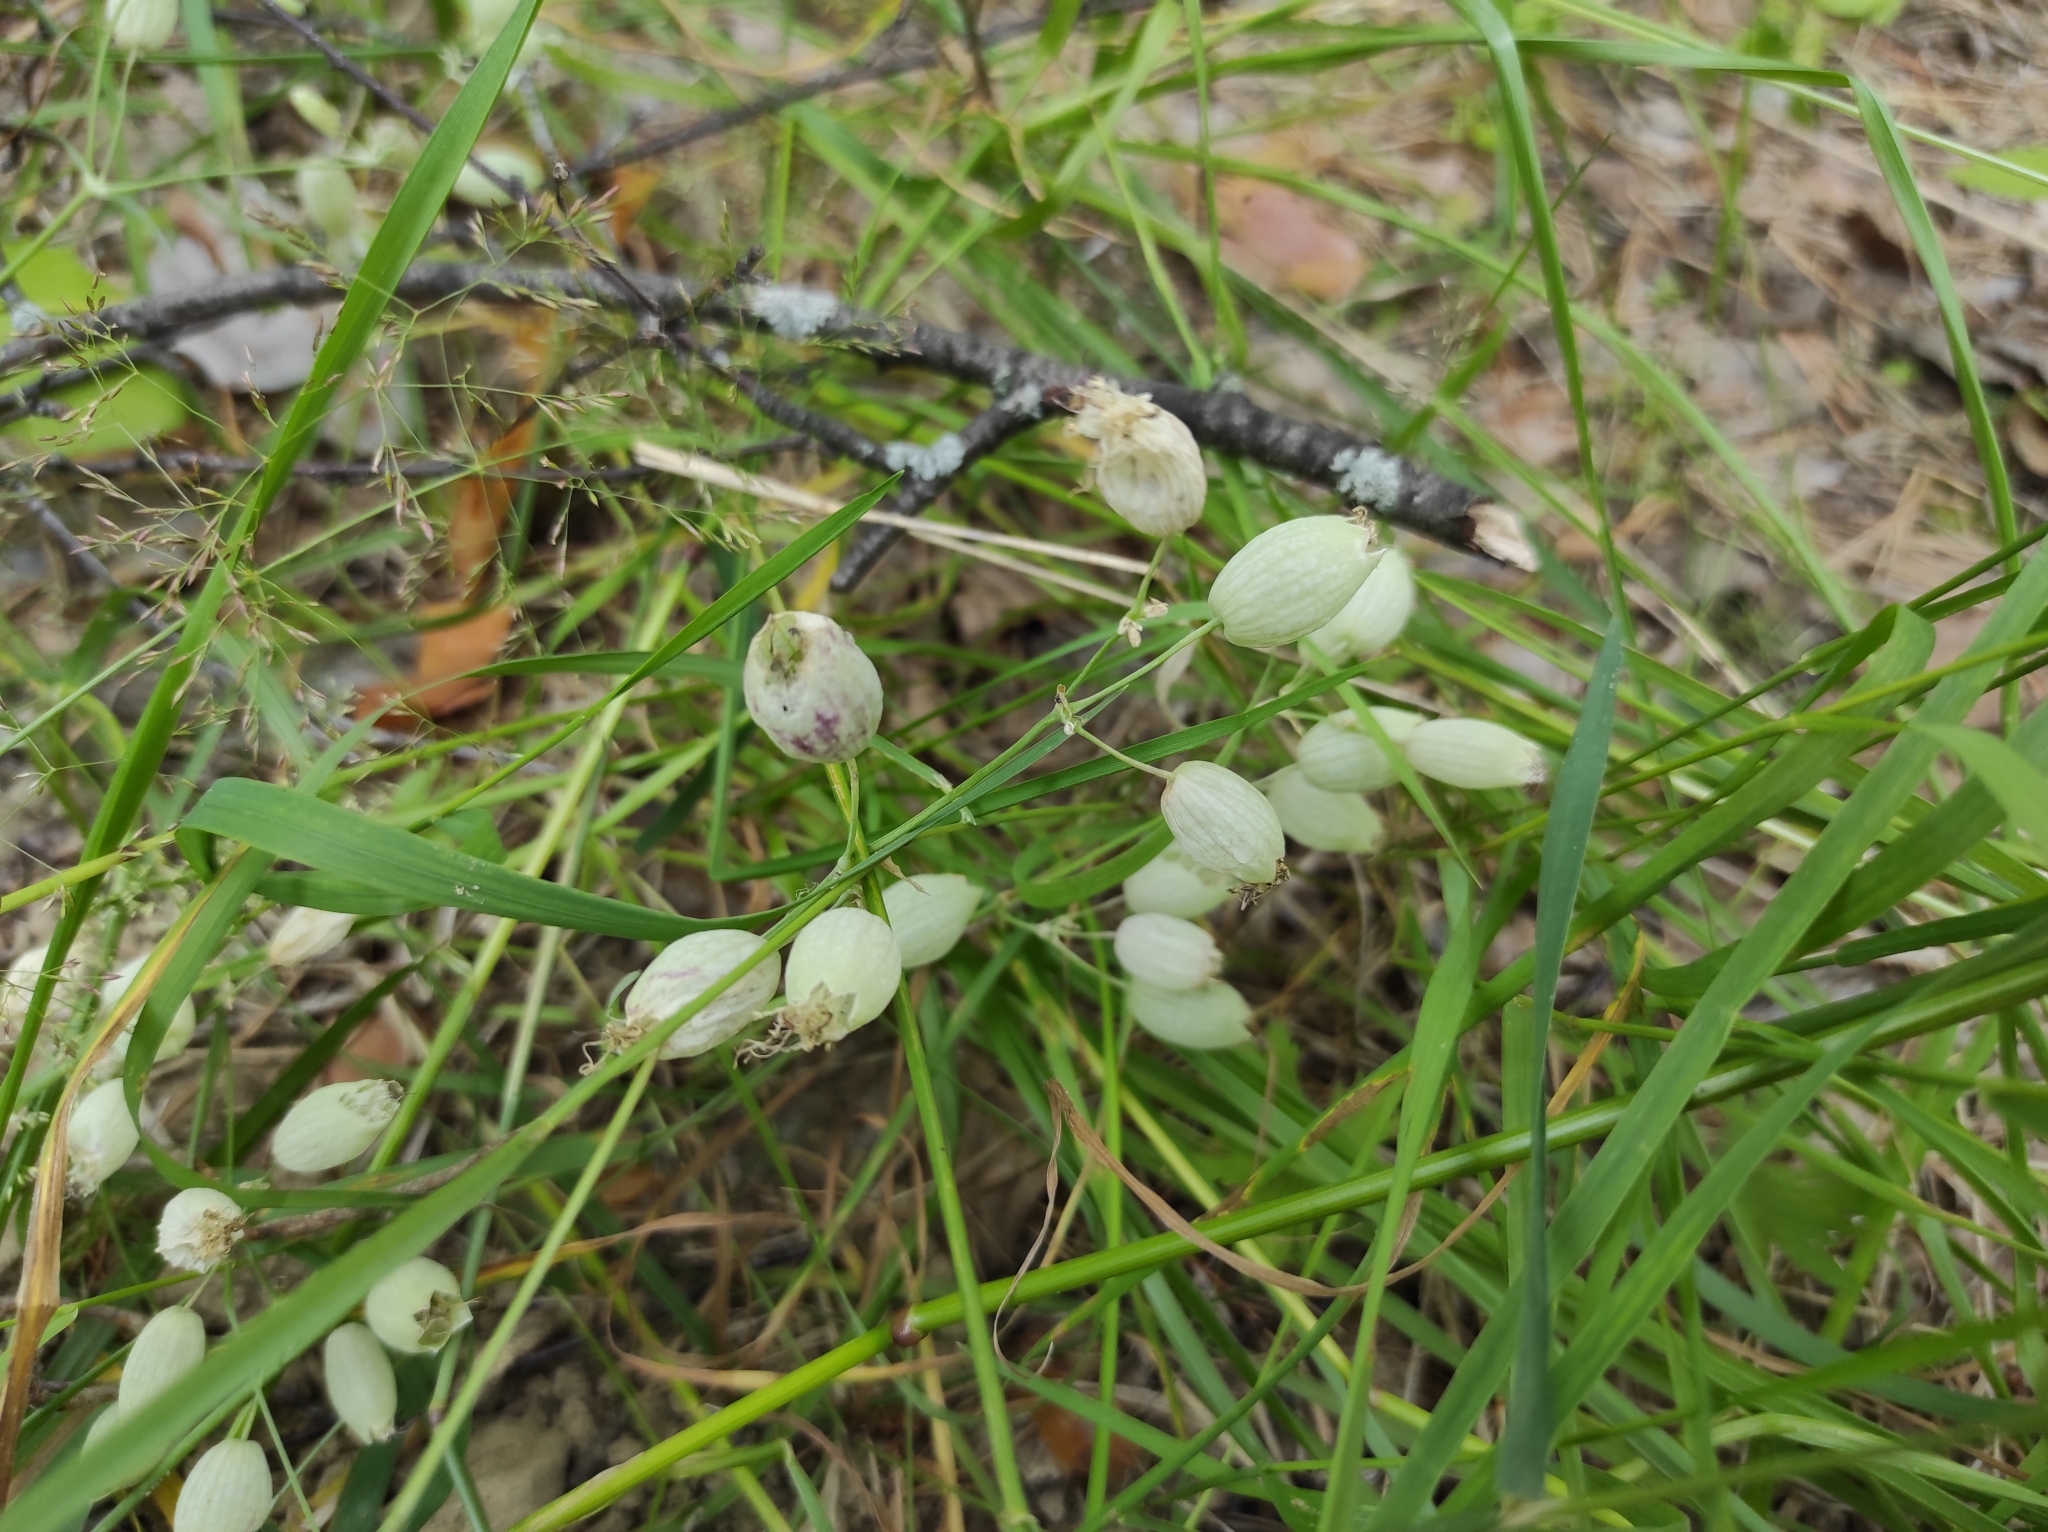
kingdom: Plantae
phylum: Tracheophyta
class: Magnoliopsida
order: Caryophyllales
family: Caryophyllaceae
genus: Silene
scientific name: Silene vulgaris
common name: Bladder campion
